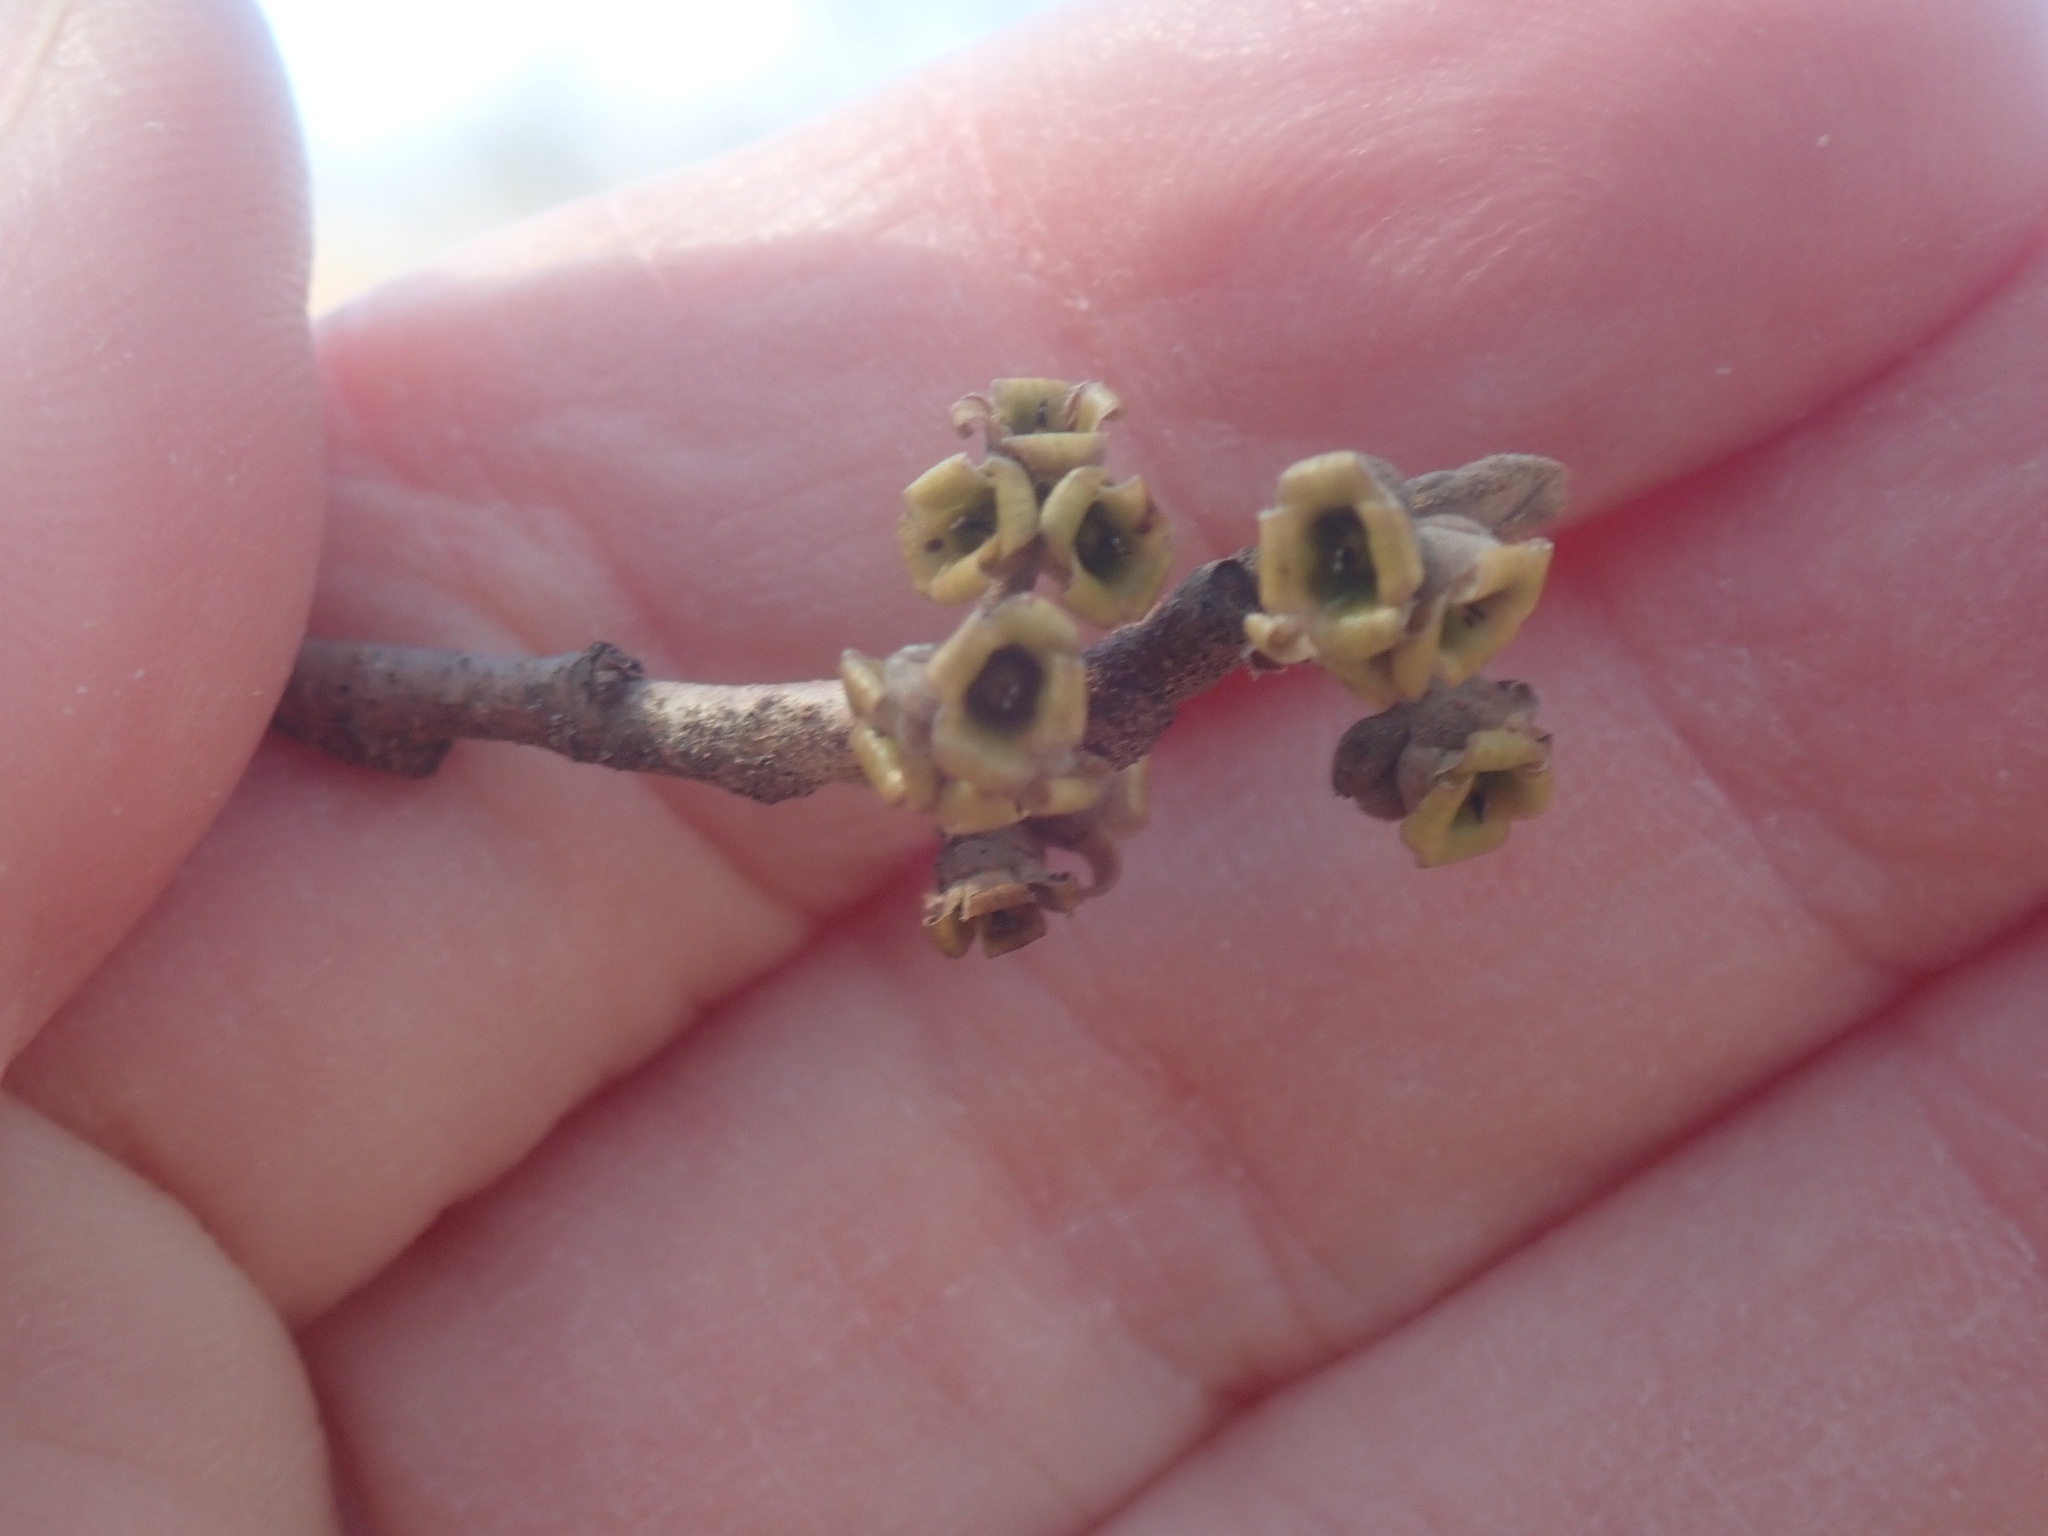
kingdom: Plantae
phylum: Tracheophyta
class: Magnoliopsida
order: Saxifragales
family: Hamamelidaceae
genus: Hamamelis
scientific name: Hamamelis virginiana
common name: Witch-hazel
